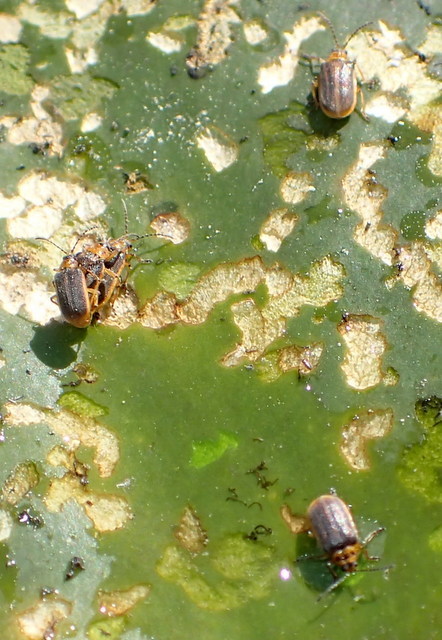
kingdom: Animalia
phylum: Arthropoda
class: Insecta
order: Coleoptera
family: Chrysomelidae
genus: Galerucella
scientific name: Galerucella nymphaeae
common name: Leaf beetle
